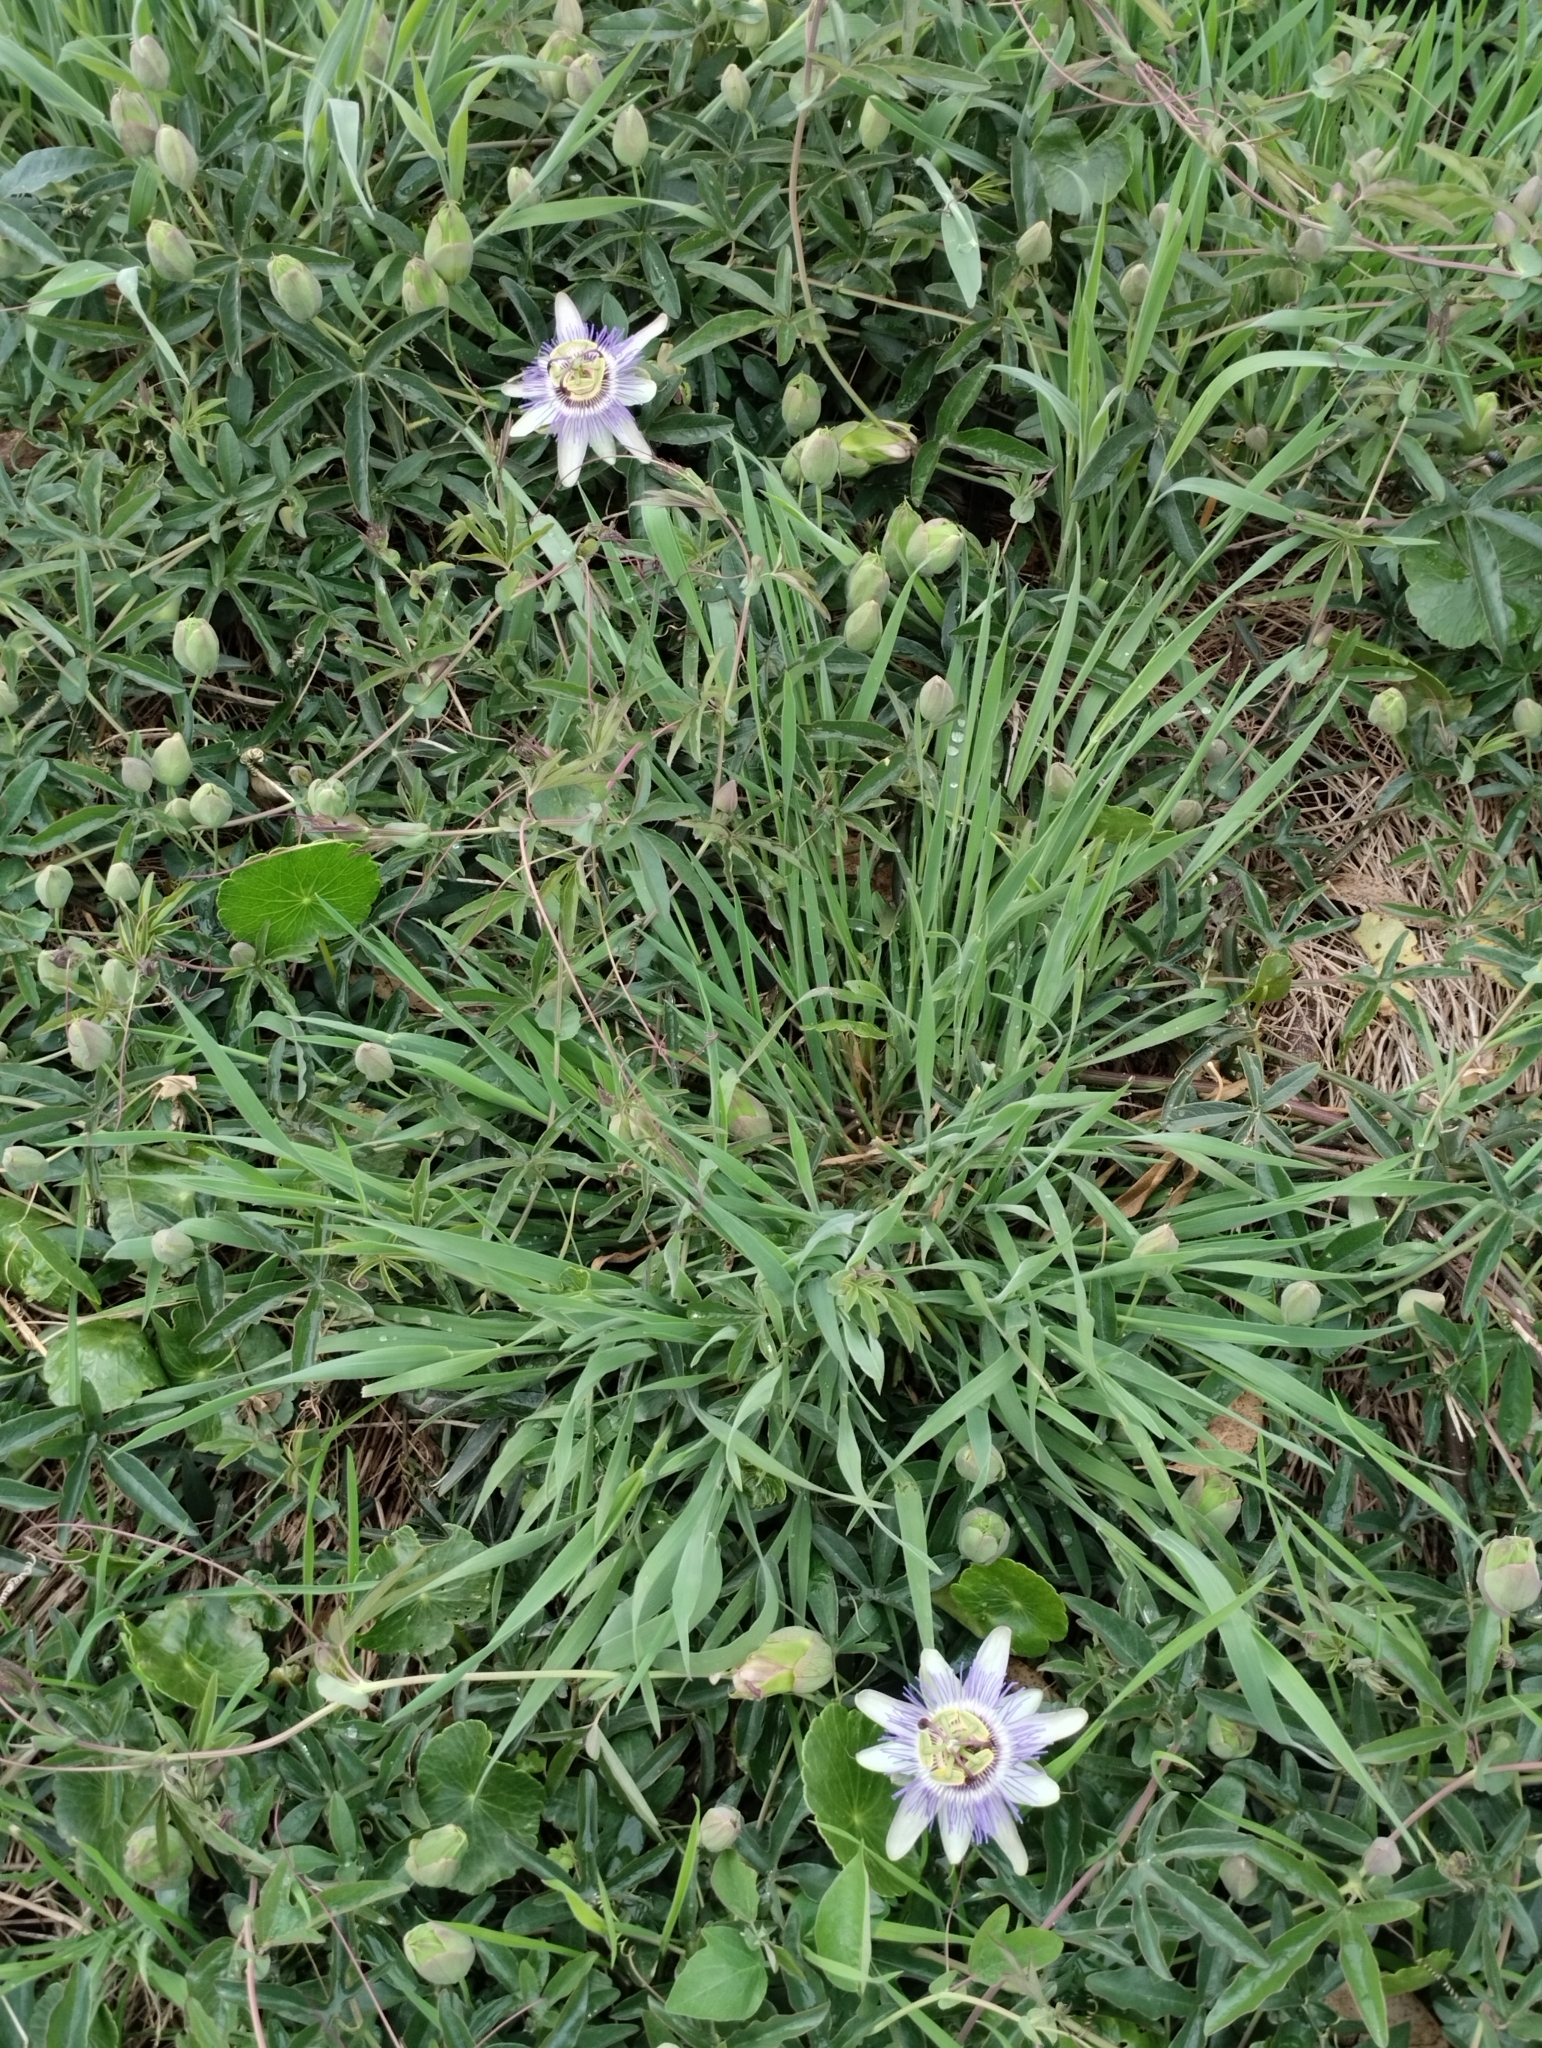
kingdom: Plantae
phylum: Tracheophyta
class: Magnoliopsida
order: Malpighiales
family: Passifloraceae
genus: Passiflora
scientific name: Passiflora caerulea
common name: Blue passionflower
